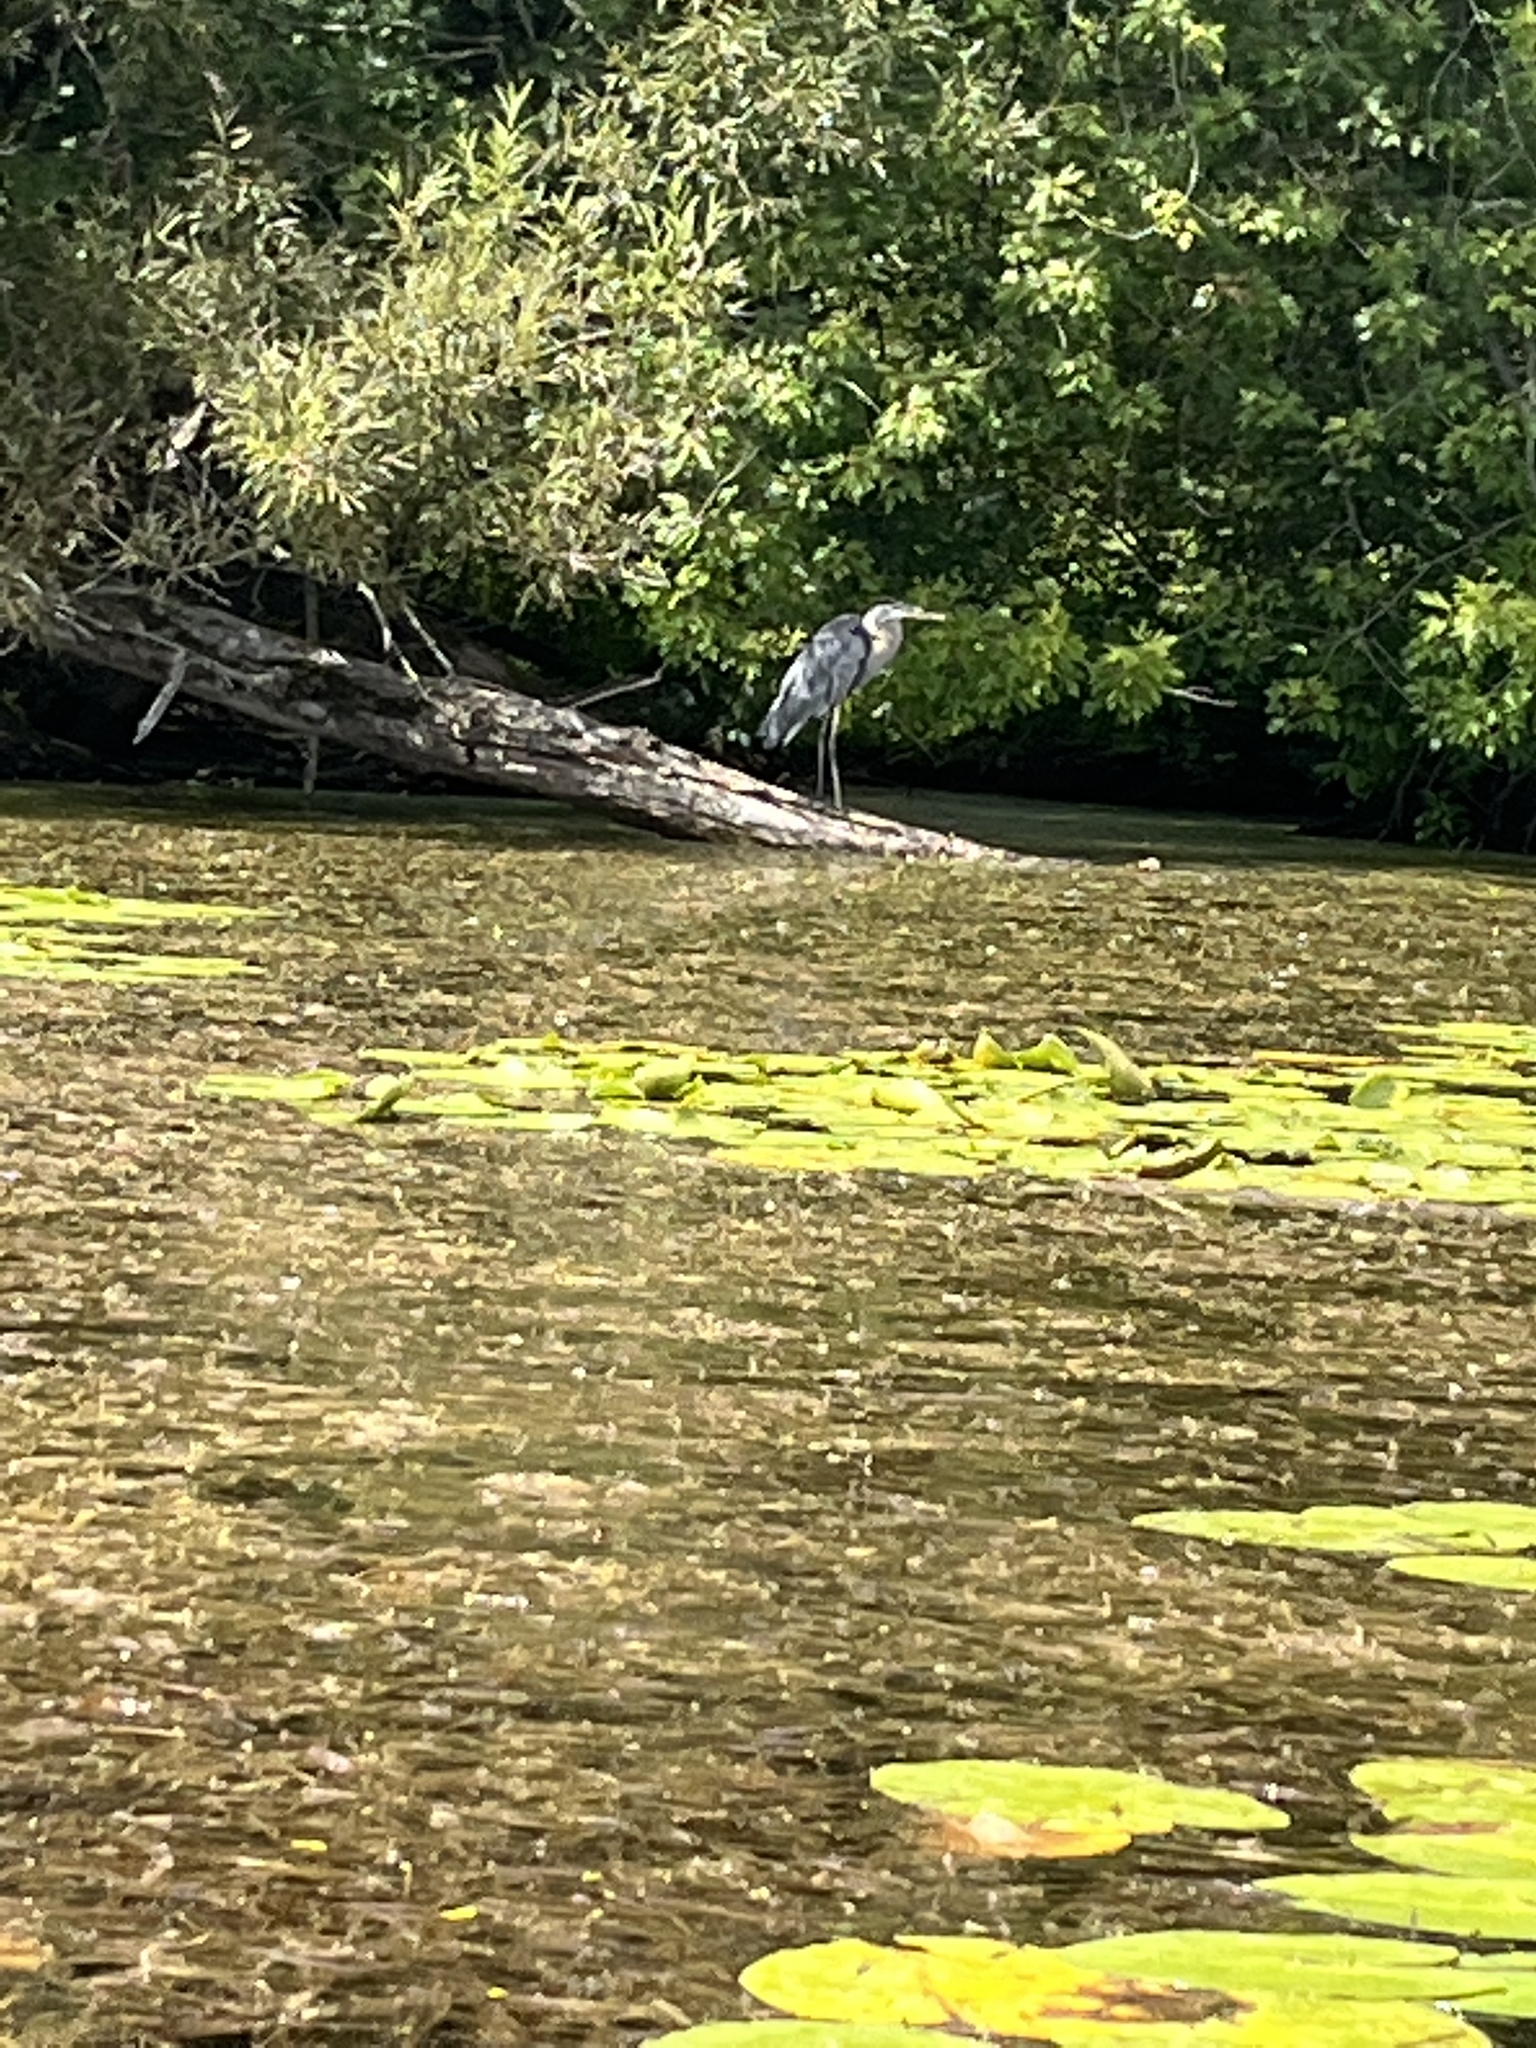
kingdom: Animalia
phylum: Chordata
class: Aves
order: Pelecaniformes
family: Ardeidae
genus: Ardea
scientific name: Ardea herodias
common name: Great blue heron
